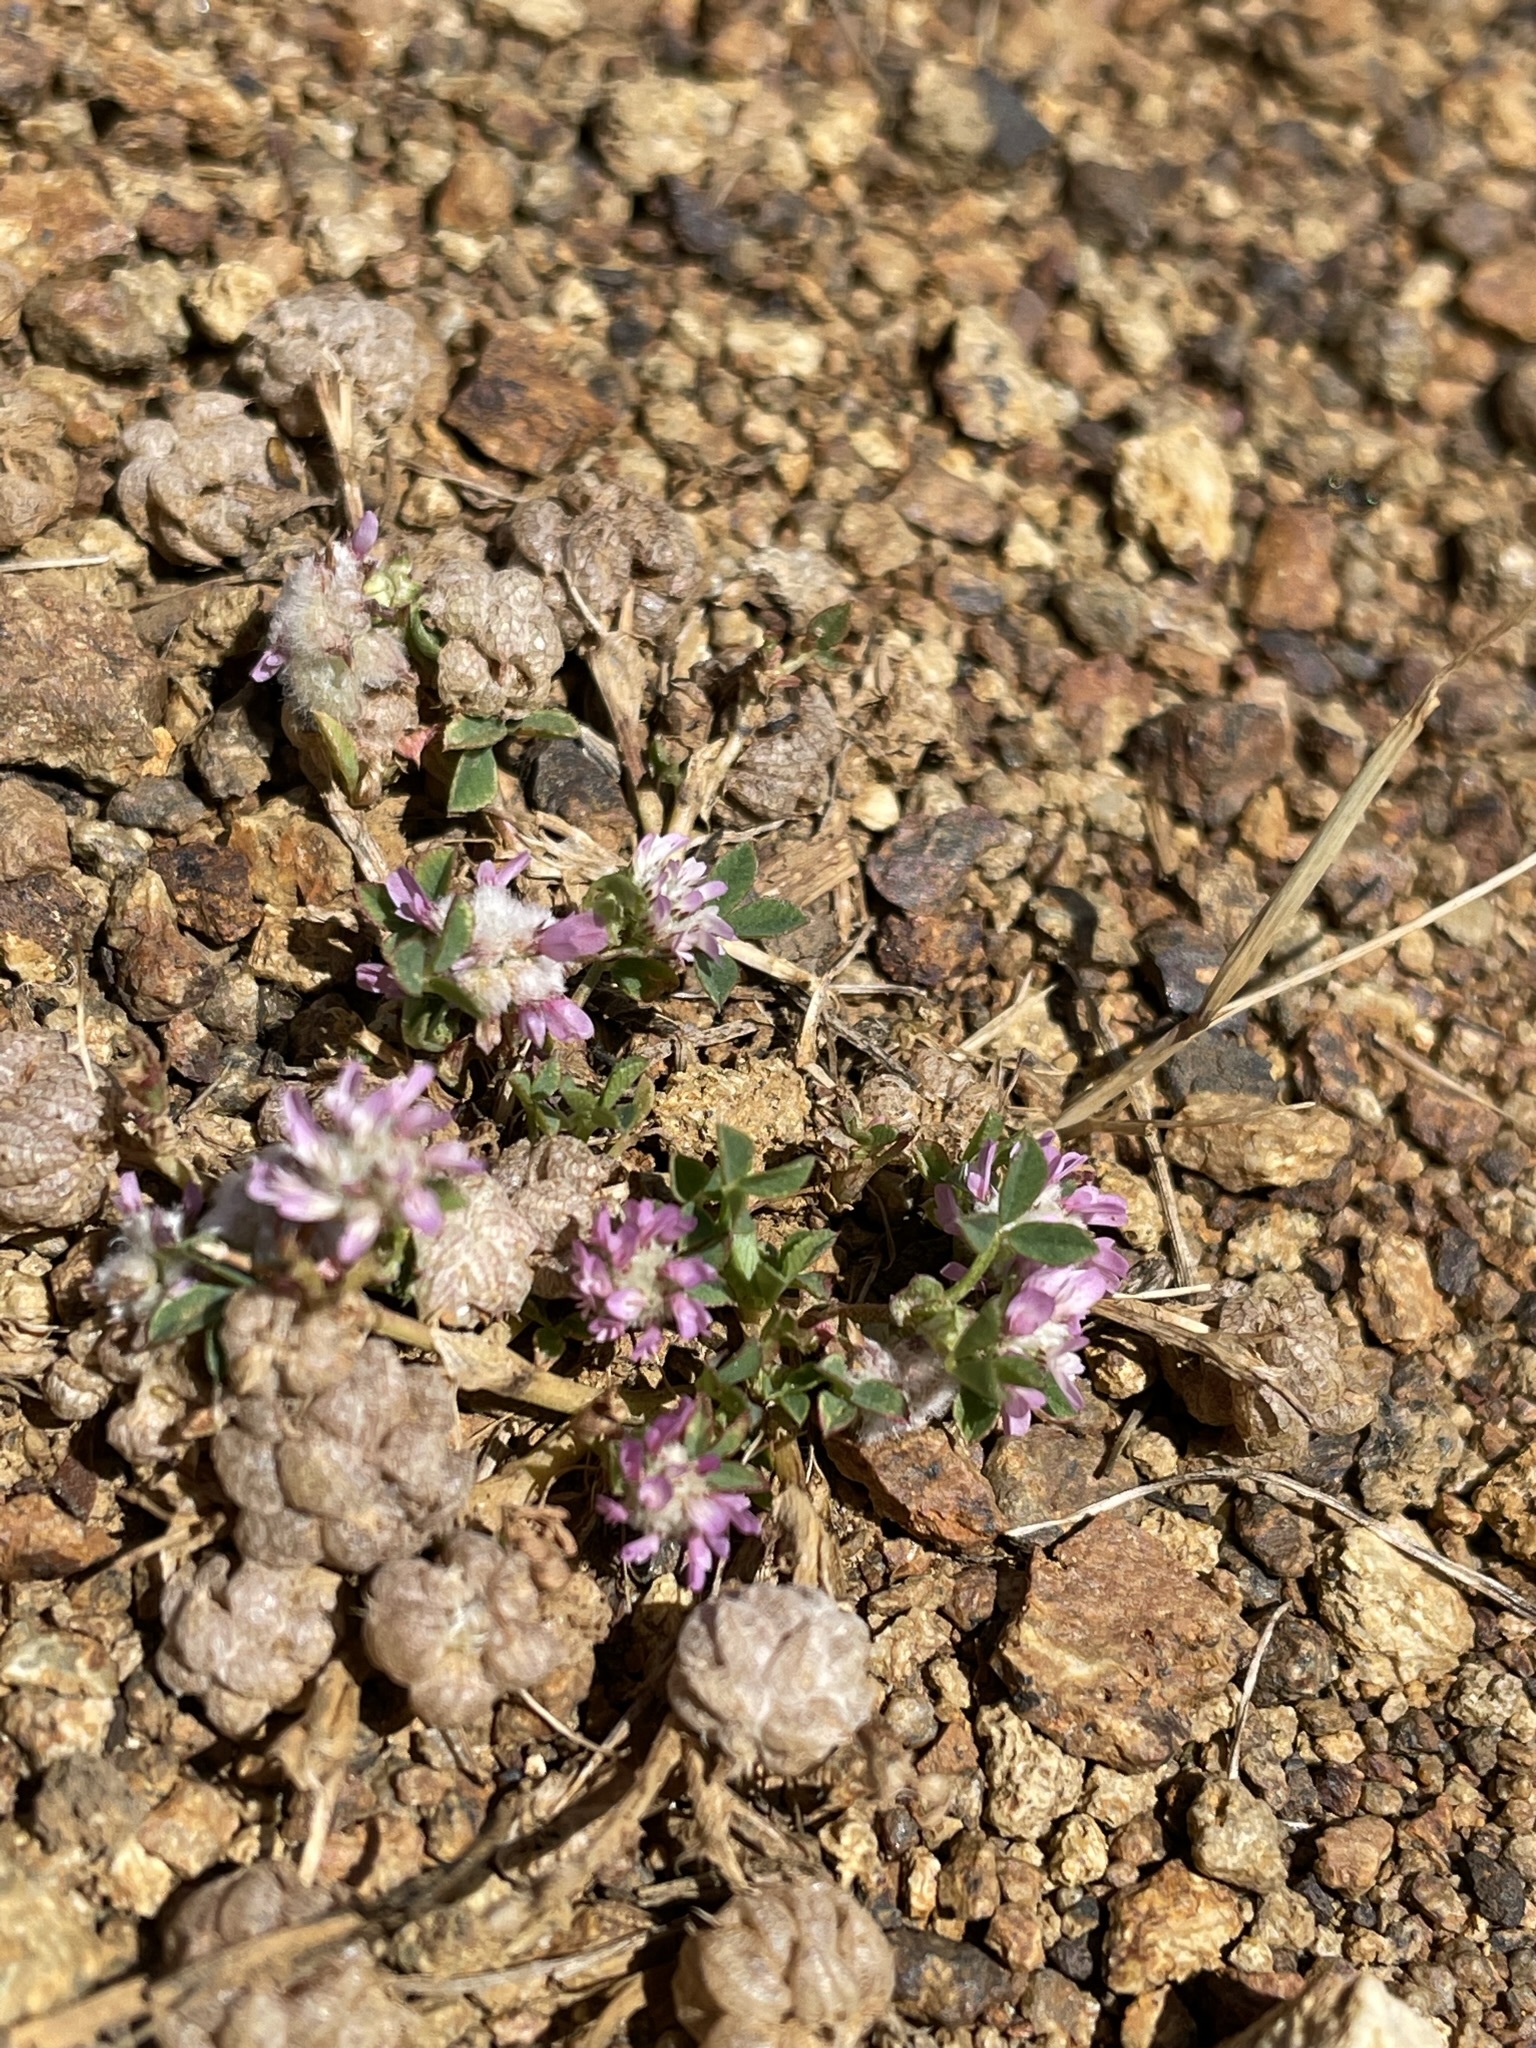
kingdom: Plantae
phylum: Tracheophyta
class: Magnoliopsida
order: Fabales
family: Fabaceae
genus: Trifolium
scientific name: Trifolium tomentosum
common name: Woolly clover
